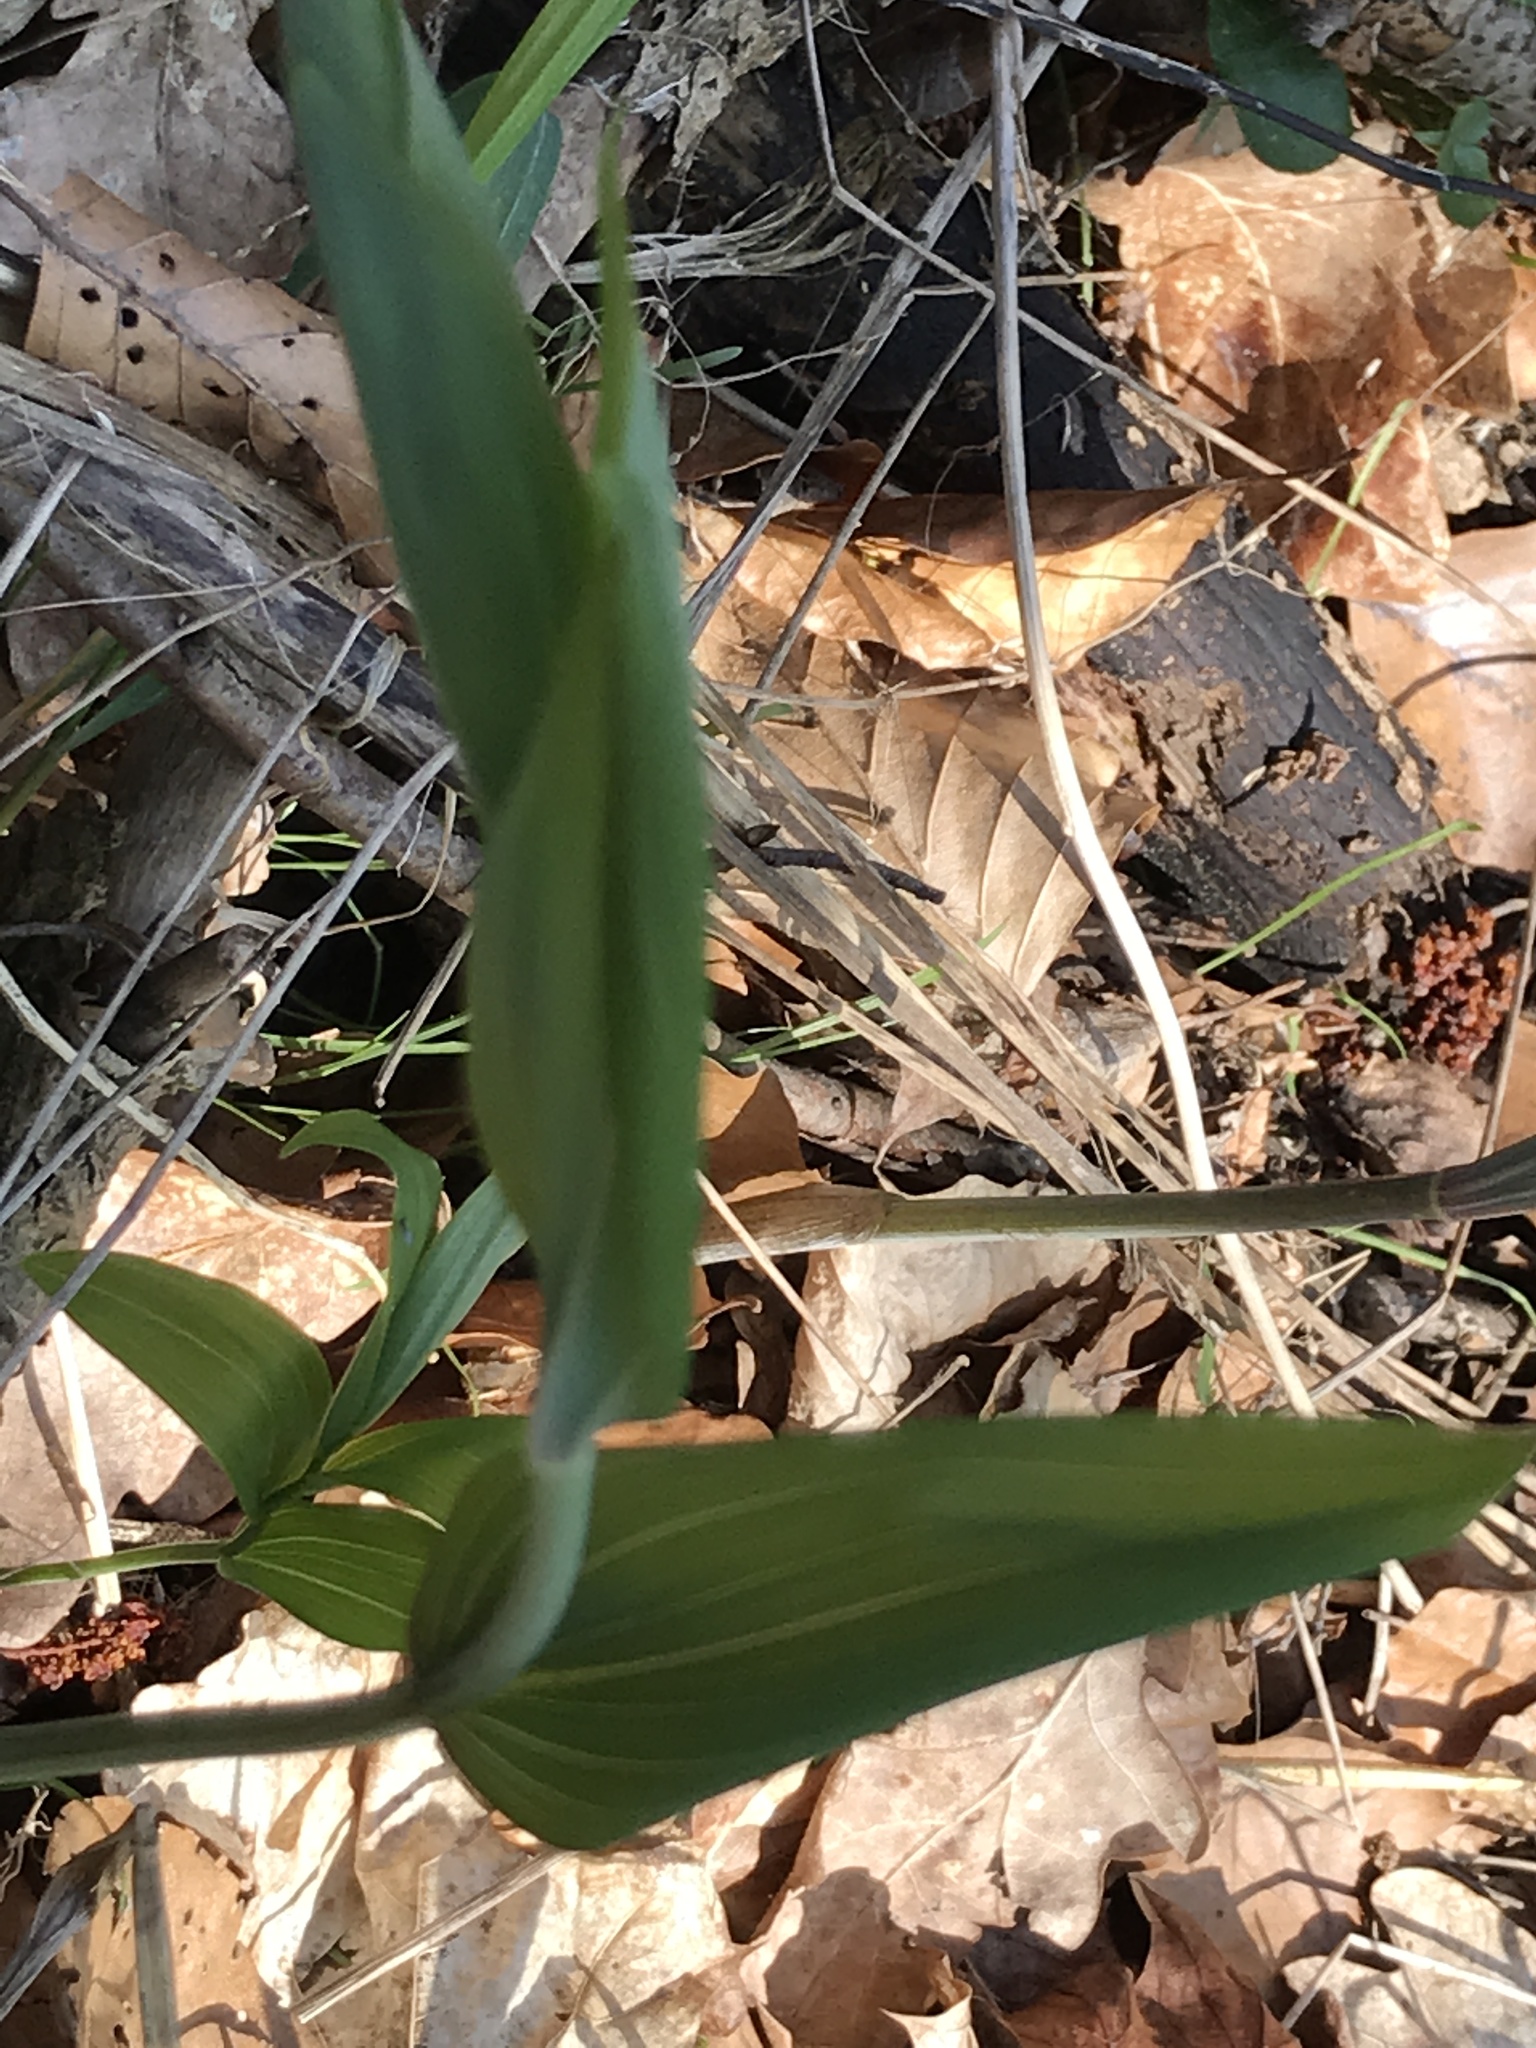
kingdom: Plantae
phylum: Tracheophyta
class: Liliopsida
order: Asparagales
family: Asparagaceae
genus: Polygonatum
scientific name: Polygonatum multiflorum
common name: Solomon's-seal
